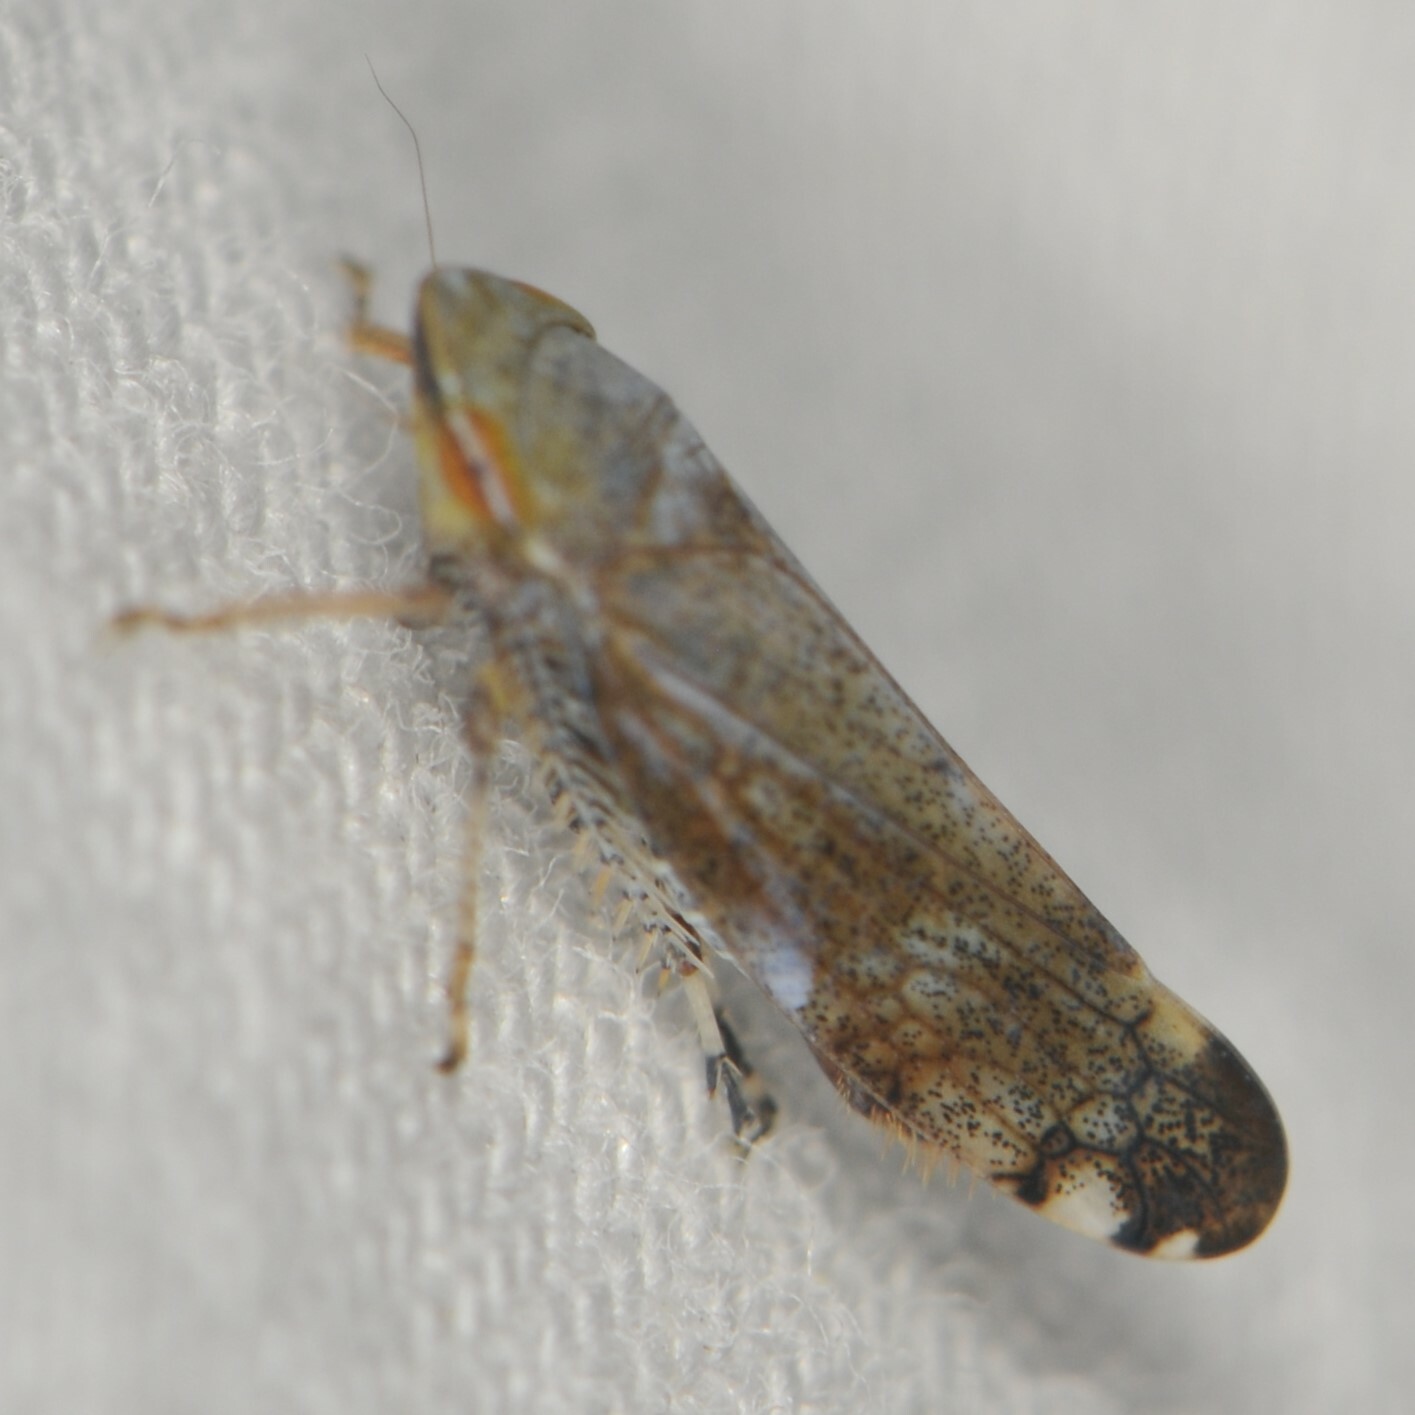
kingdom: Animalia
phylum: Arthropoda
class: Insecta
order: Hemiptera
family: Cicadellidae
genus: Fieberiella
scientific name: Fieberiella florii
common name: Flor’s leafhopper
